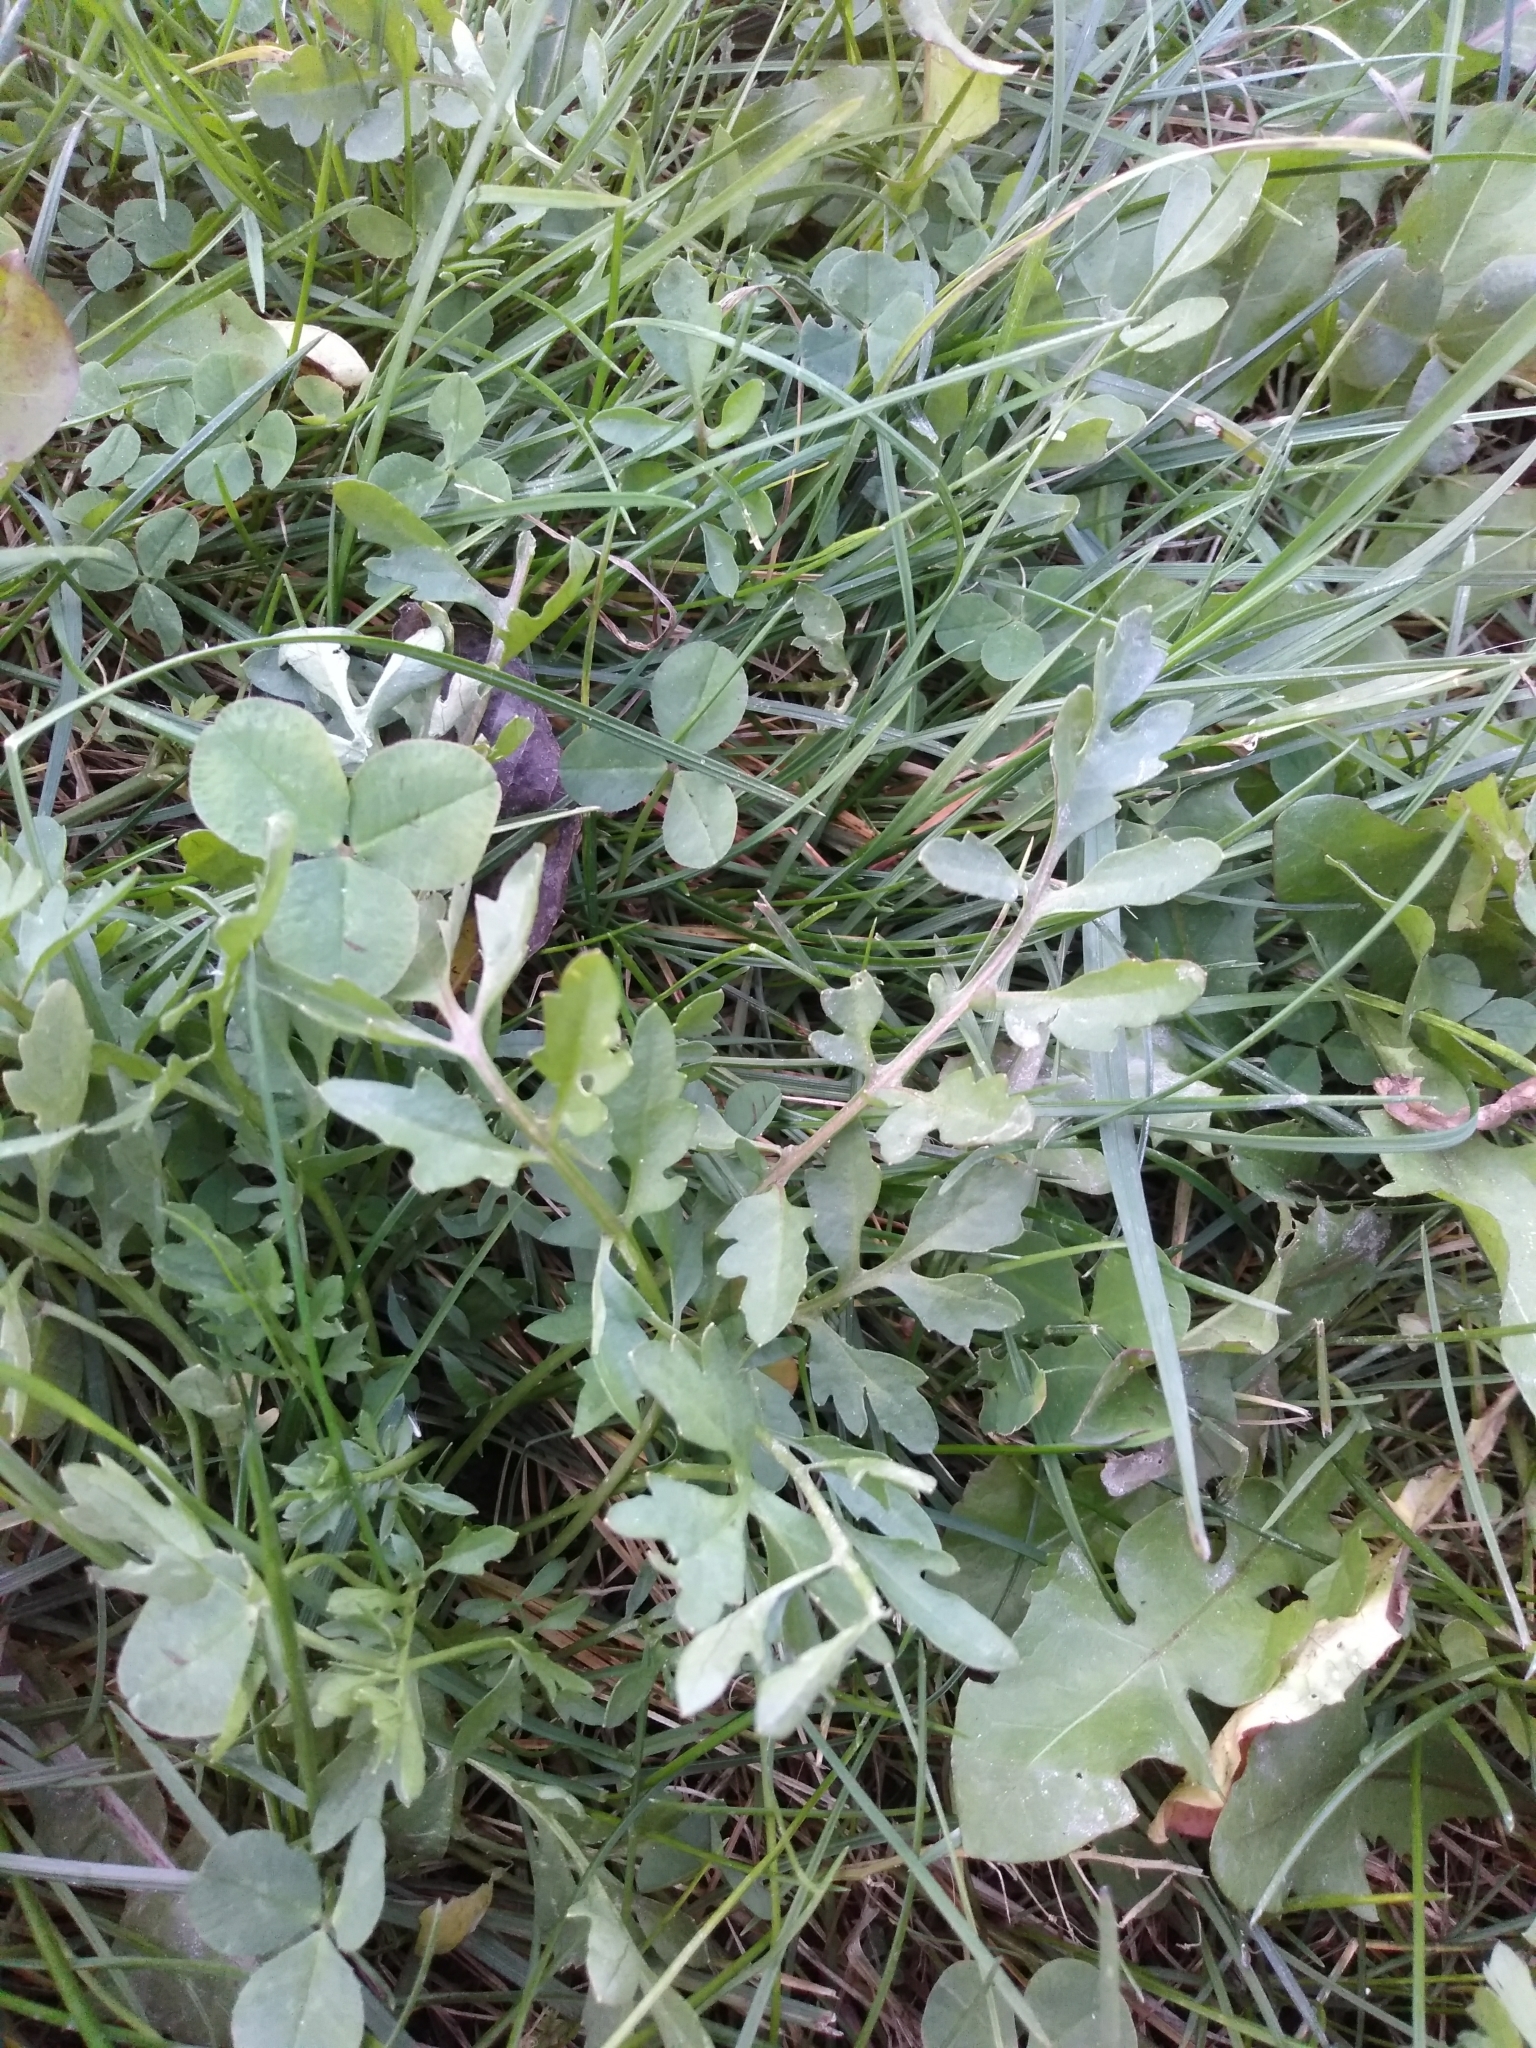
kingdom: Plantae
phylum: Tracheophyta
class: Magnoliopsida
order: Brassicales
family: Brassicaceae
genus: Rorippa
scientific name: Rorippa sylvestris
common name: Creeping yellowcress
